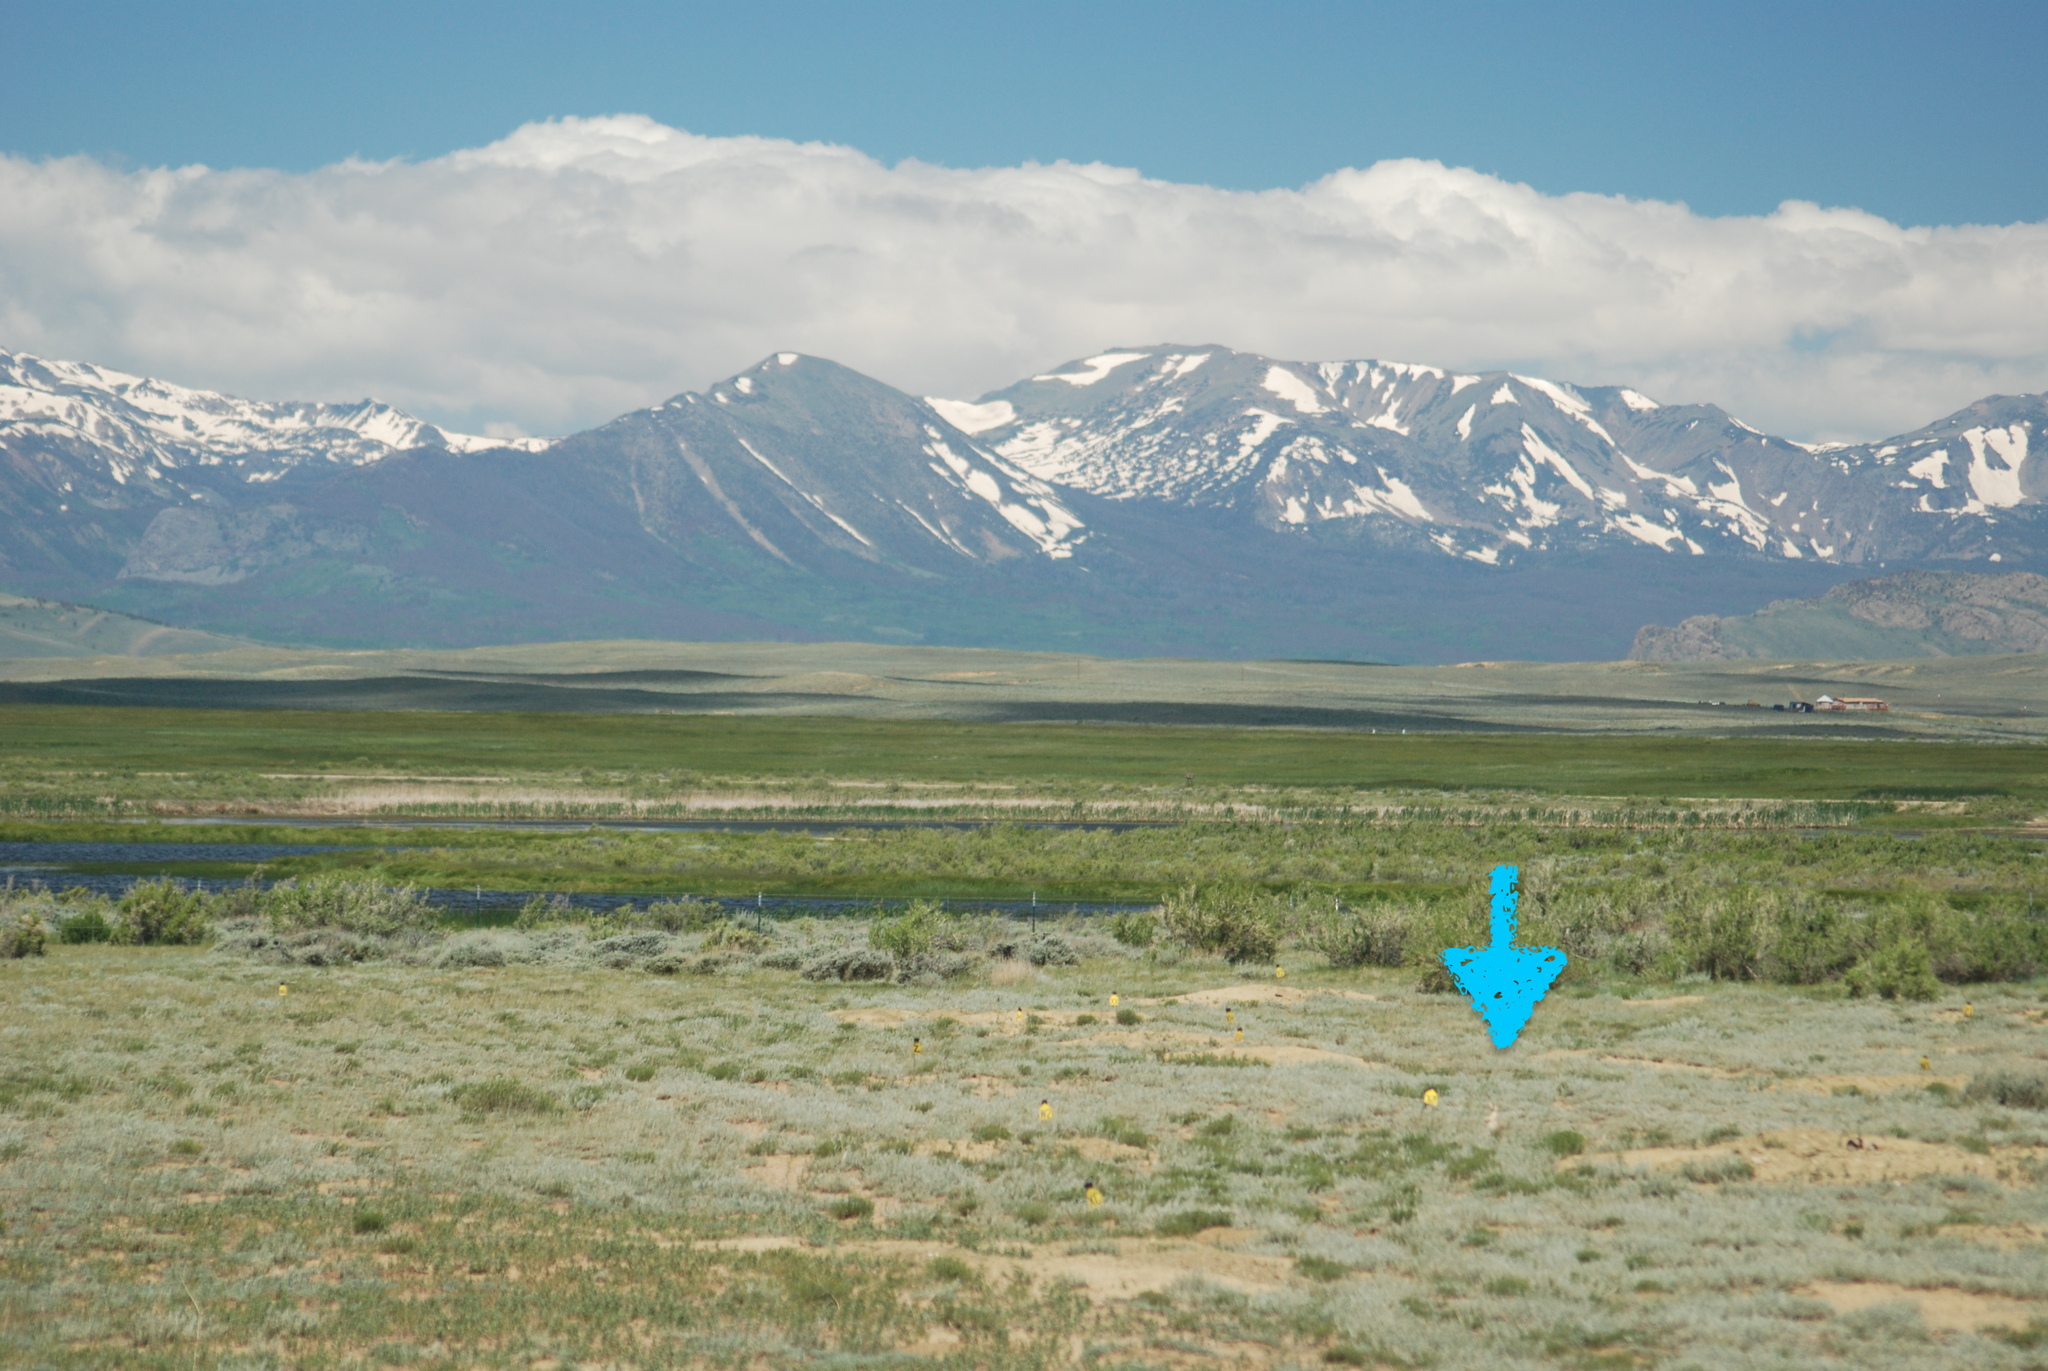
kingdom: Animalia
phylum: Chordata
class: Mammalia
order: Rodentia
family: Sciuridae
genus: Cynomys
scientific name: Cynomys leucurus
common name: White-tailed prairie dog
